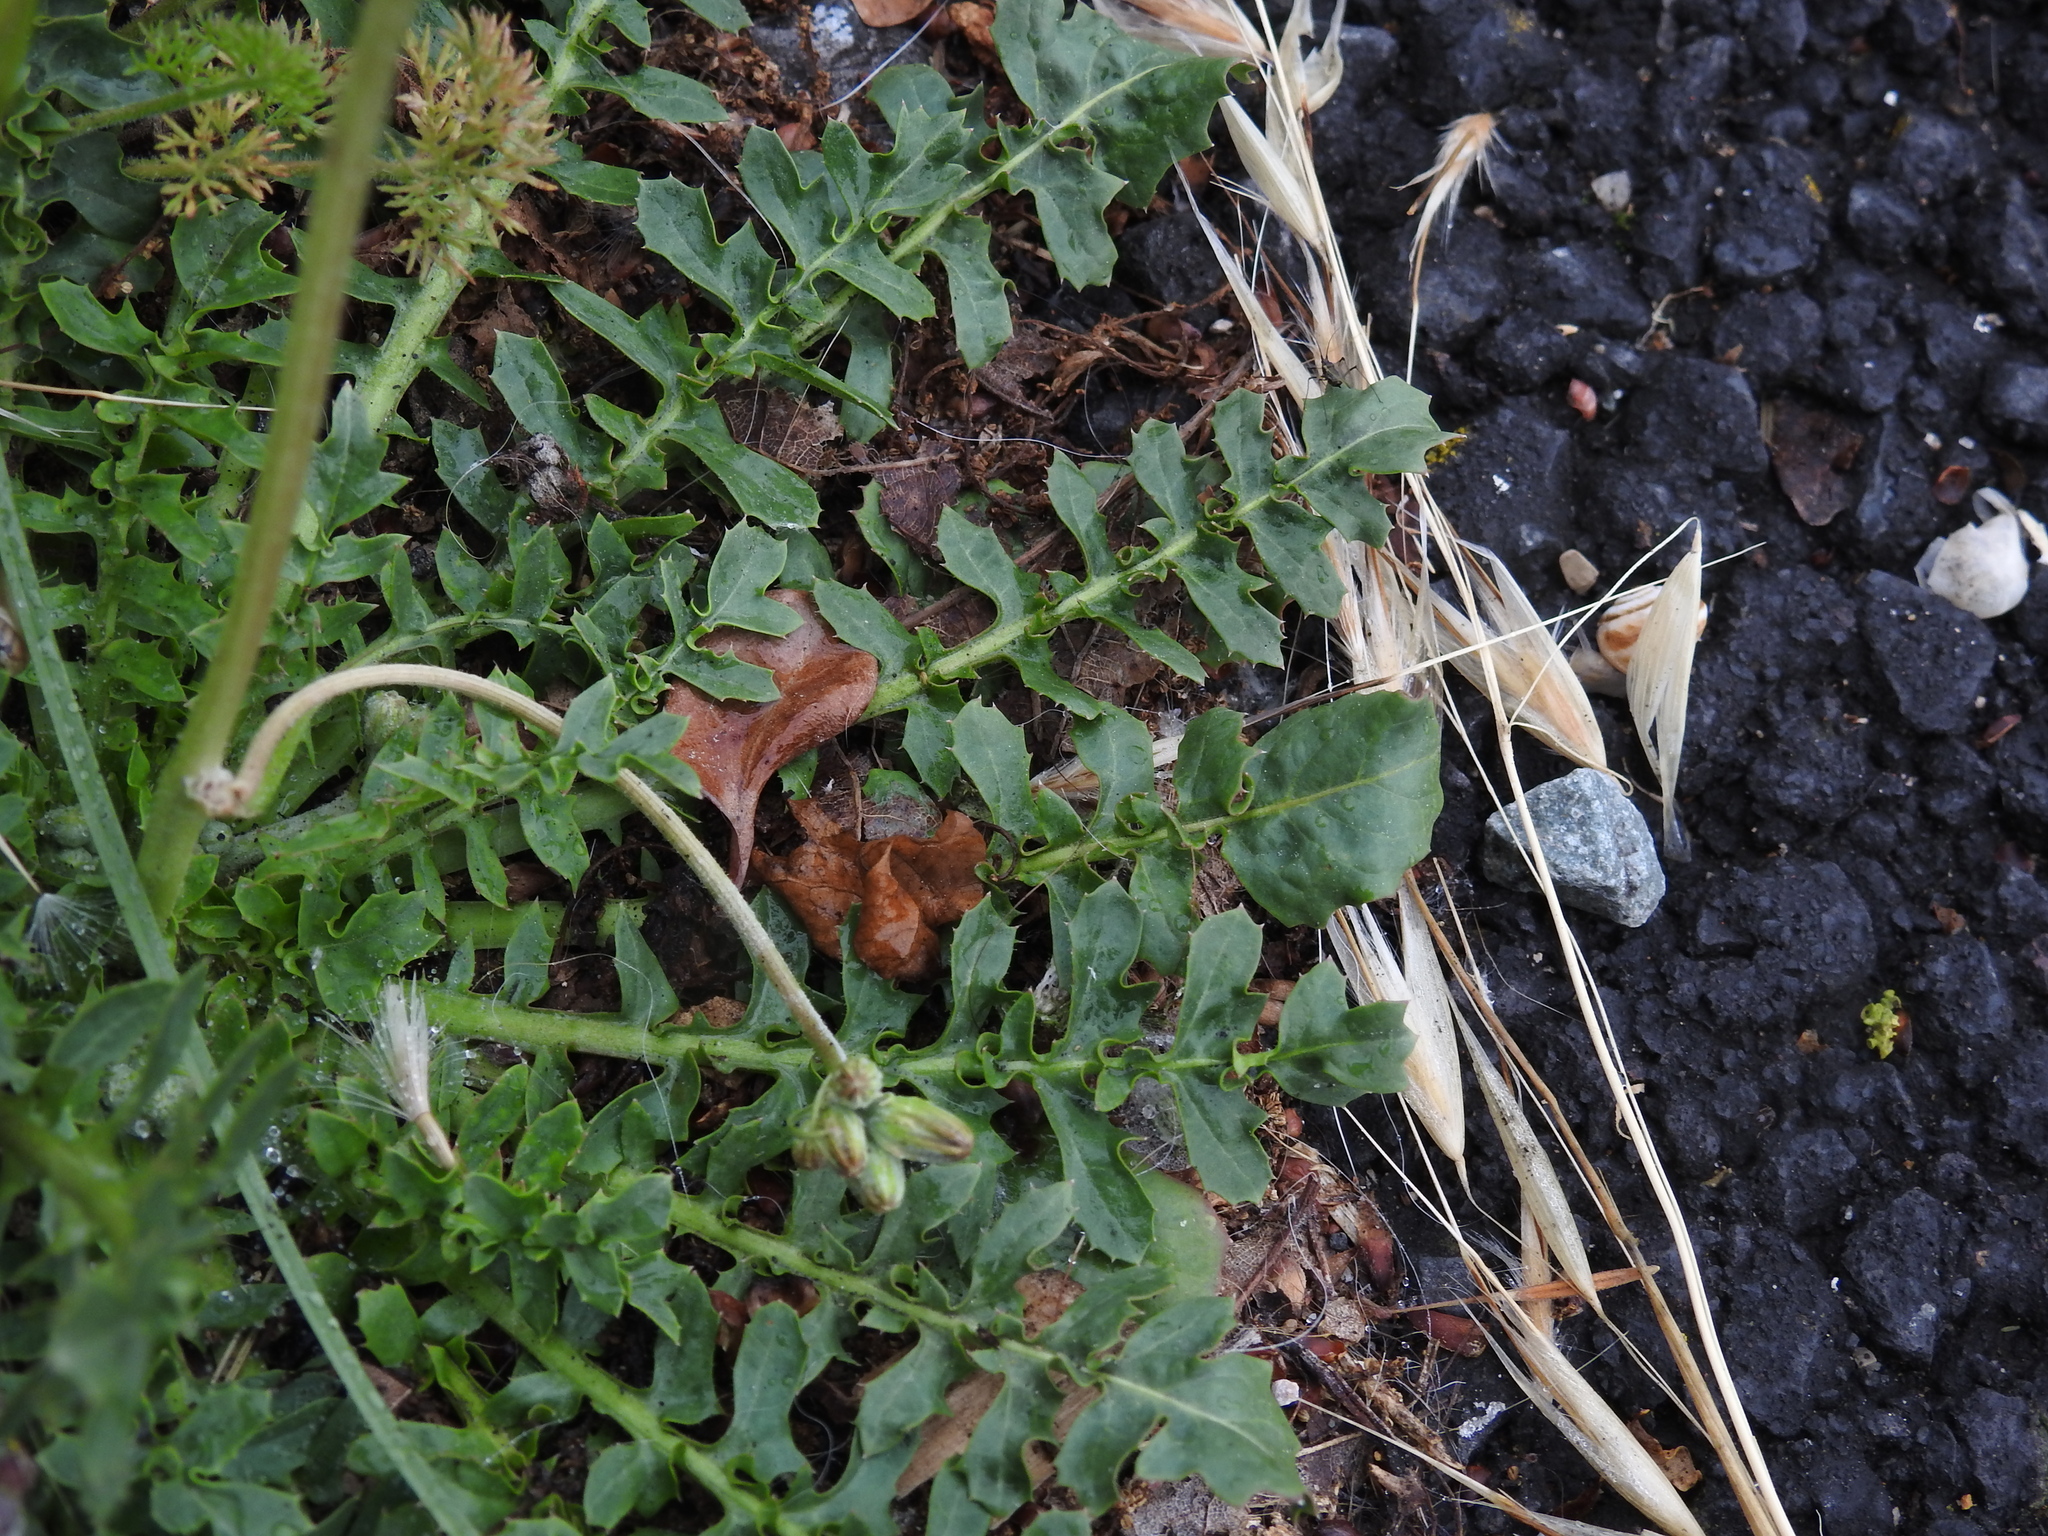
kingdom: Plantae
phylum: Tracheophyta
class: Magnoliopsida
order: Asterales
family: Asteraceae
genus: Crepis
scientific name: Crepis bursifolia
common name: Italian hawksbeard
